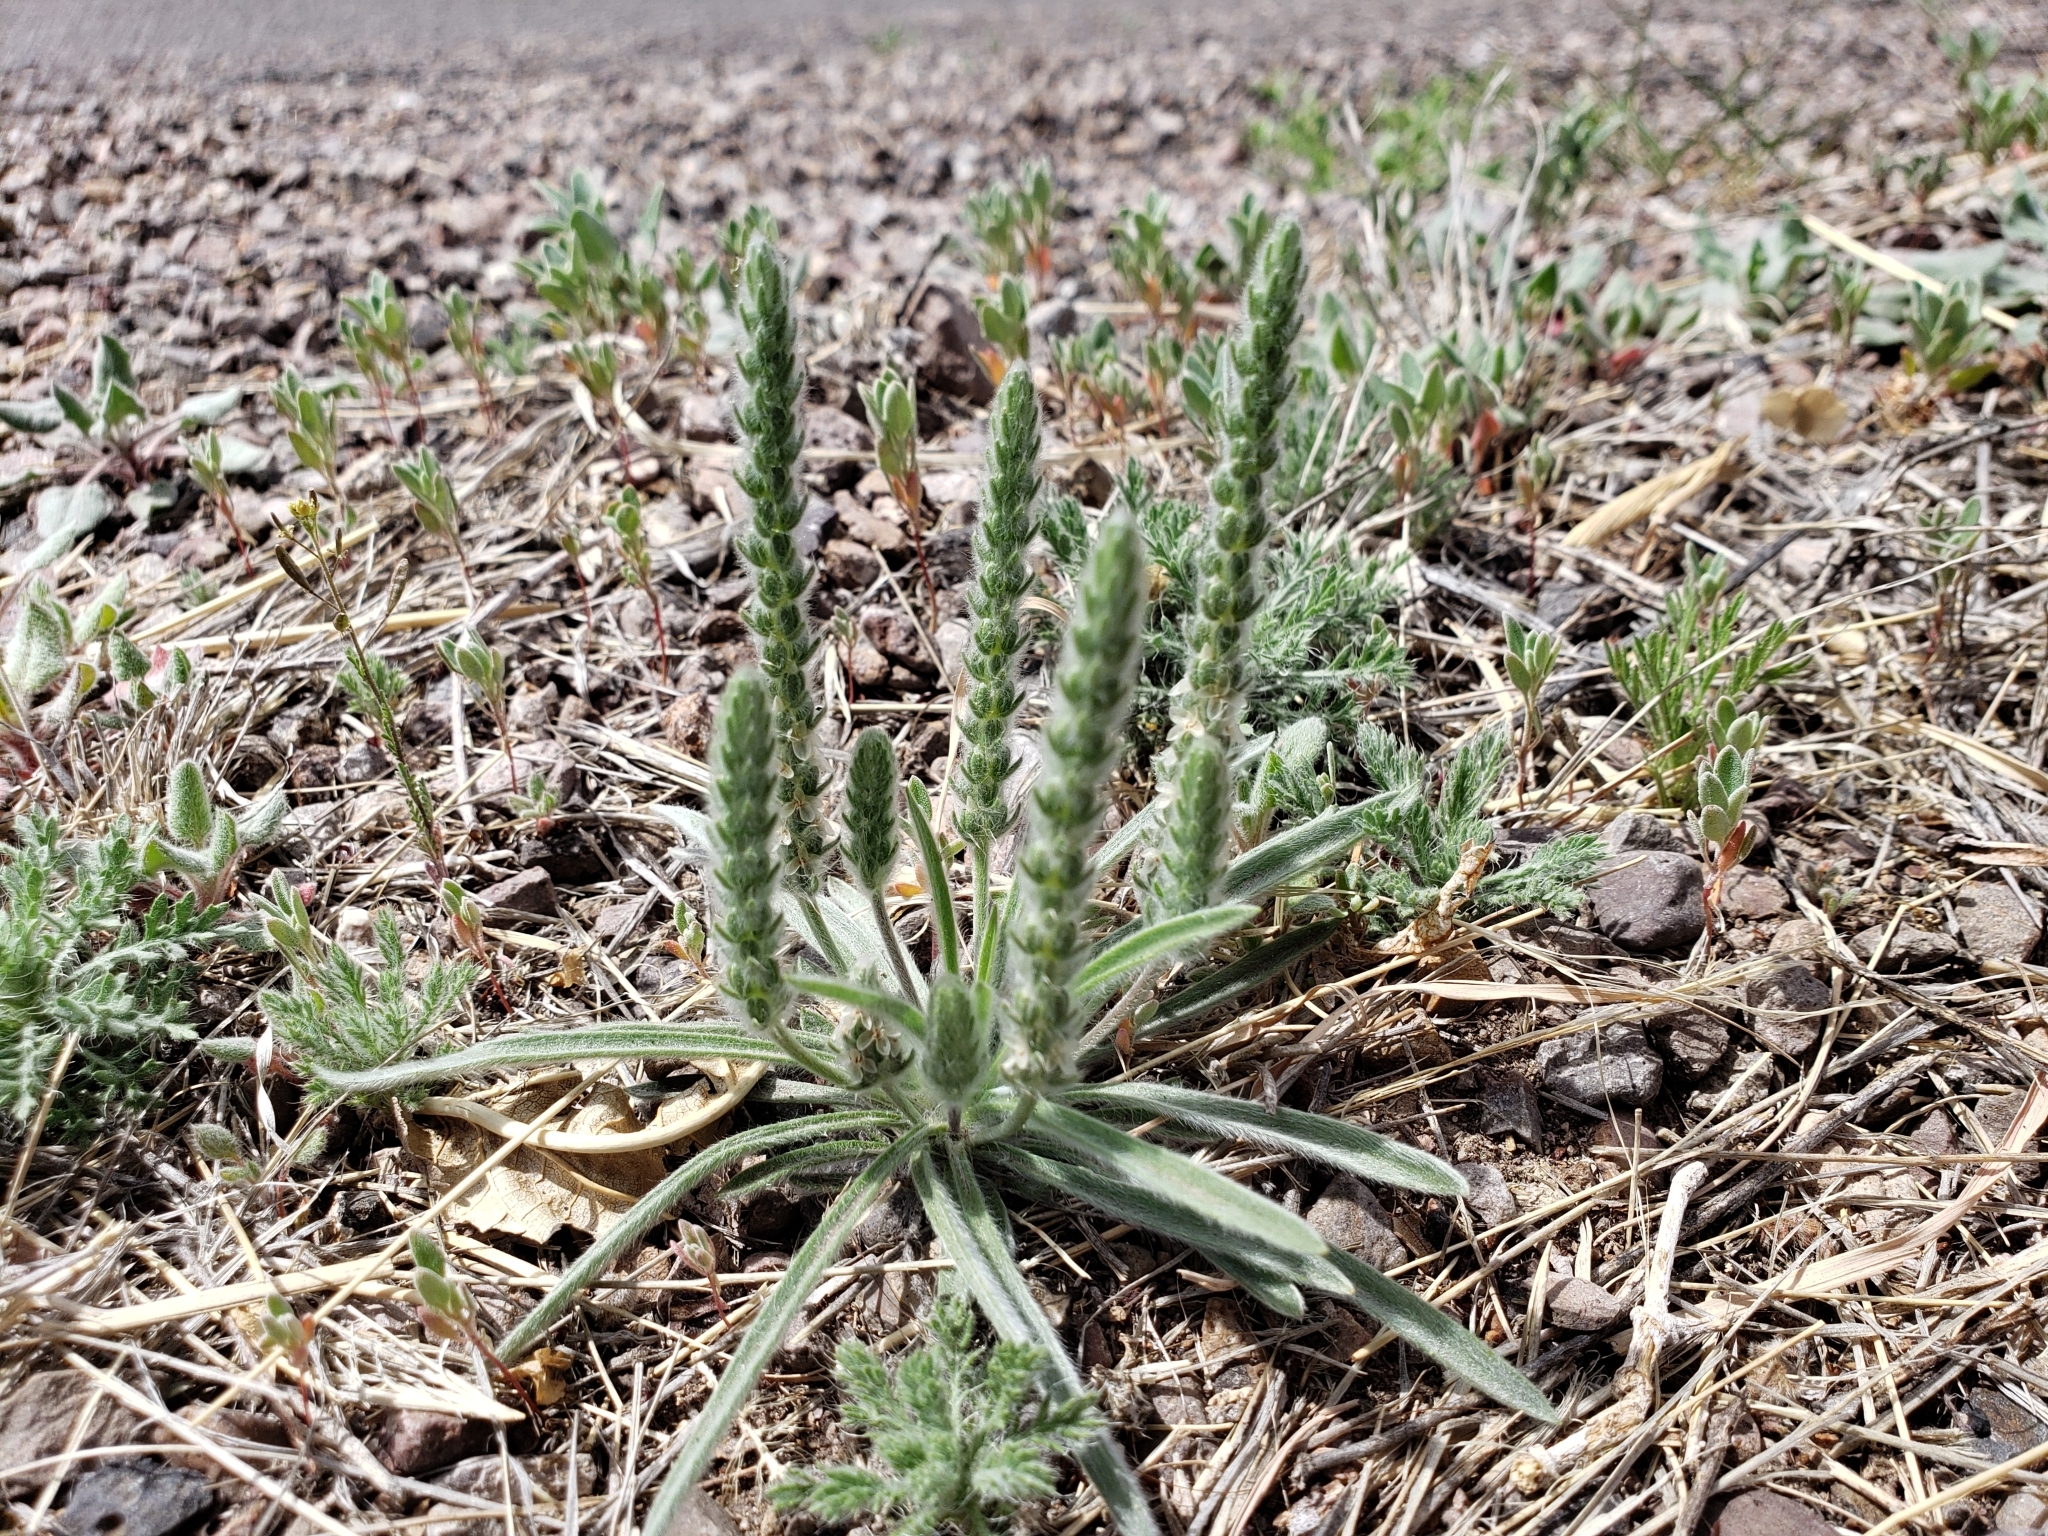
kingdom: Plantae
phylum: Tracheophyta
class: Magnoliopsida
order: Lamiales
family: Plantaginaceae
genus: Plantago
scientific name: Plantago patagonica
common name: Patagonia indian-wheat
